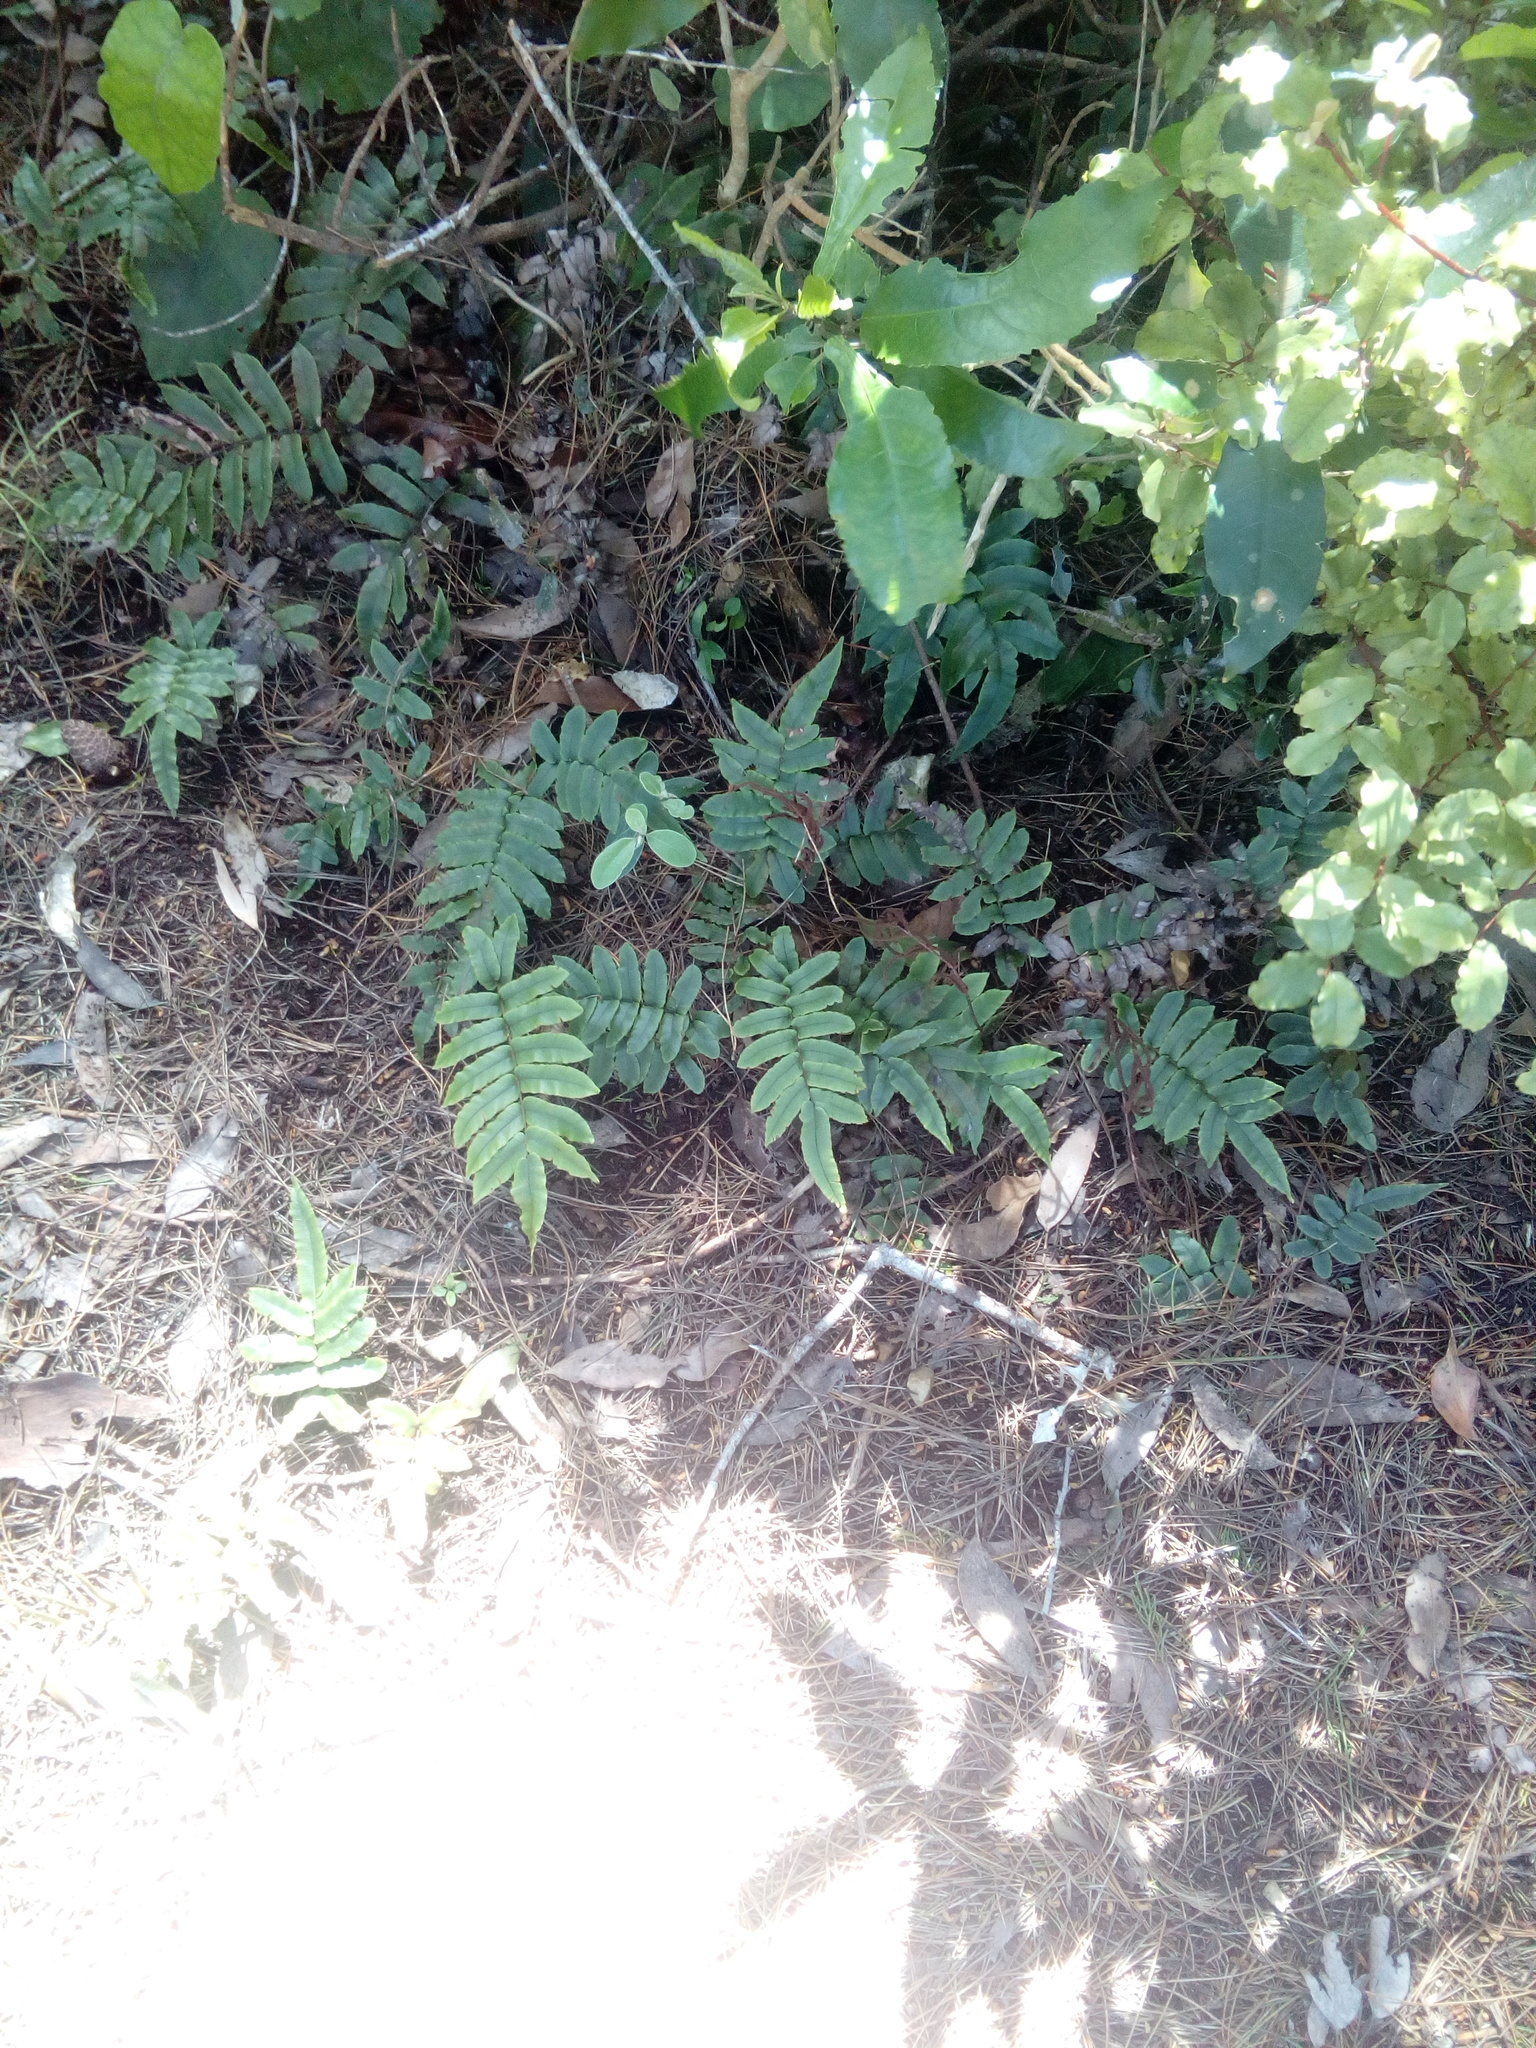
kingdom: Plantae
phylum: Tracheophyta
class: Polypodiopsida
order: Polypodiales
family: Blechnaceae
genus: Parablechnum
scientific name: Parablechnum procerum
